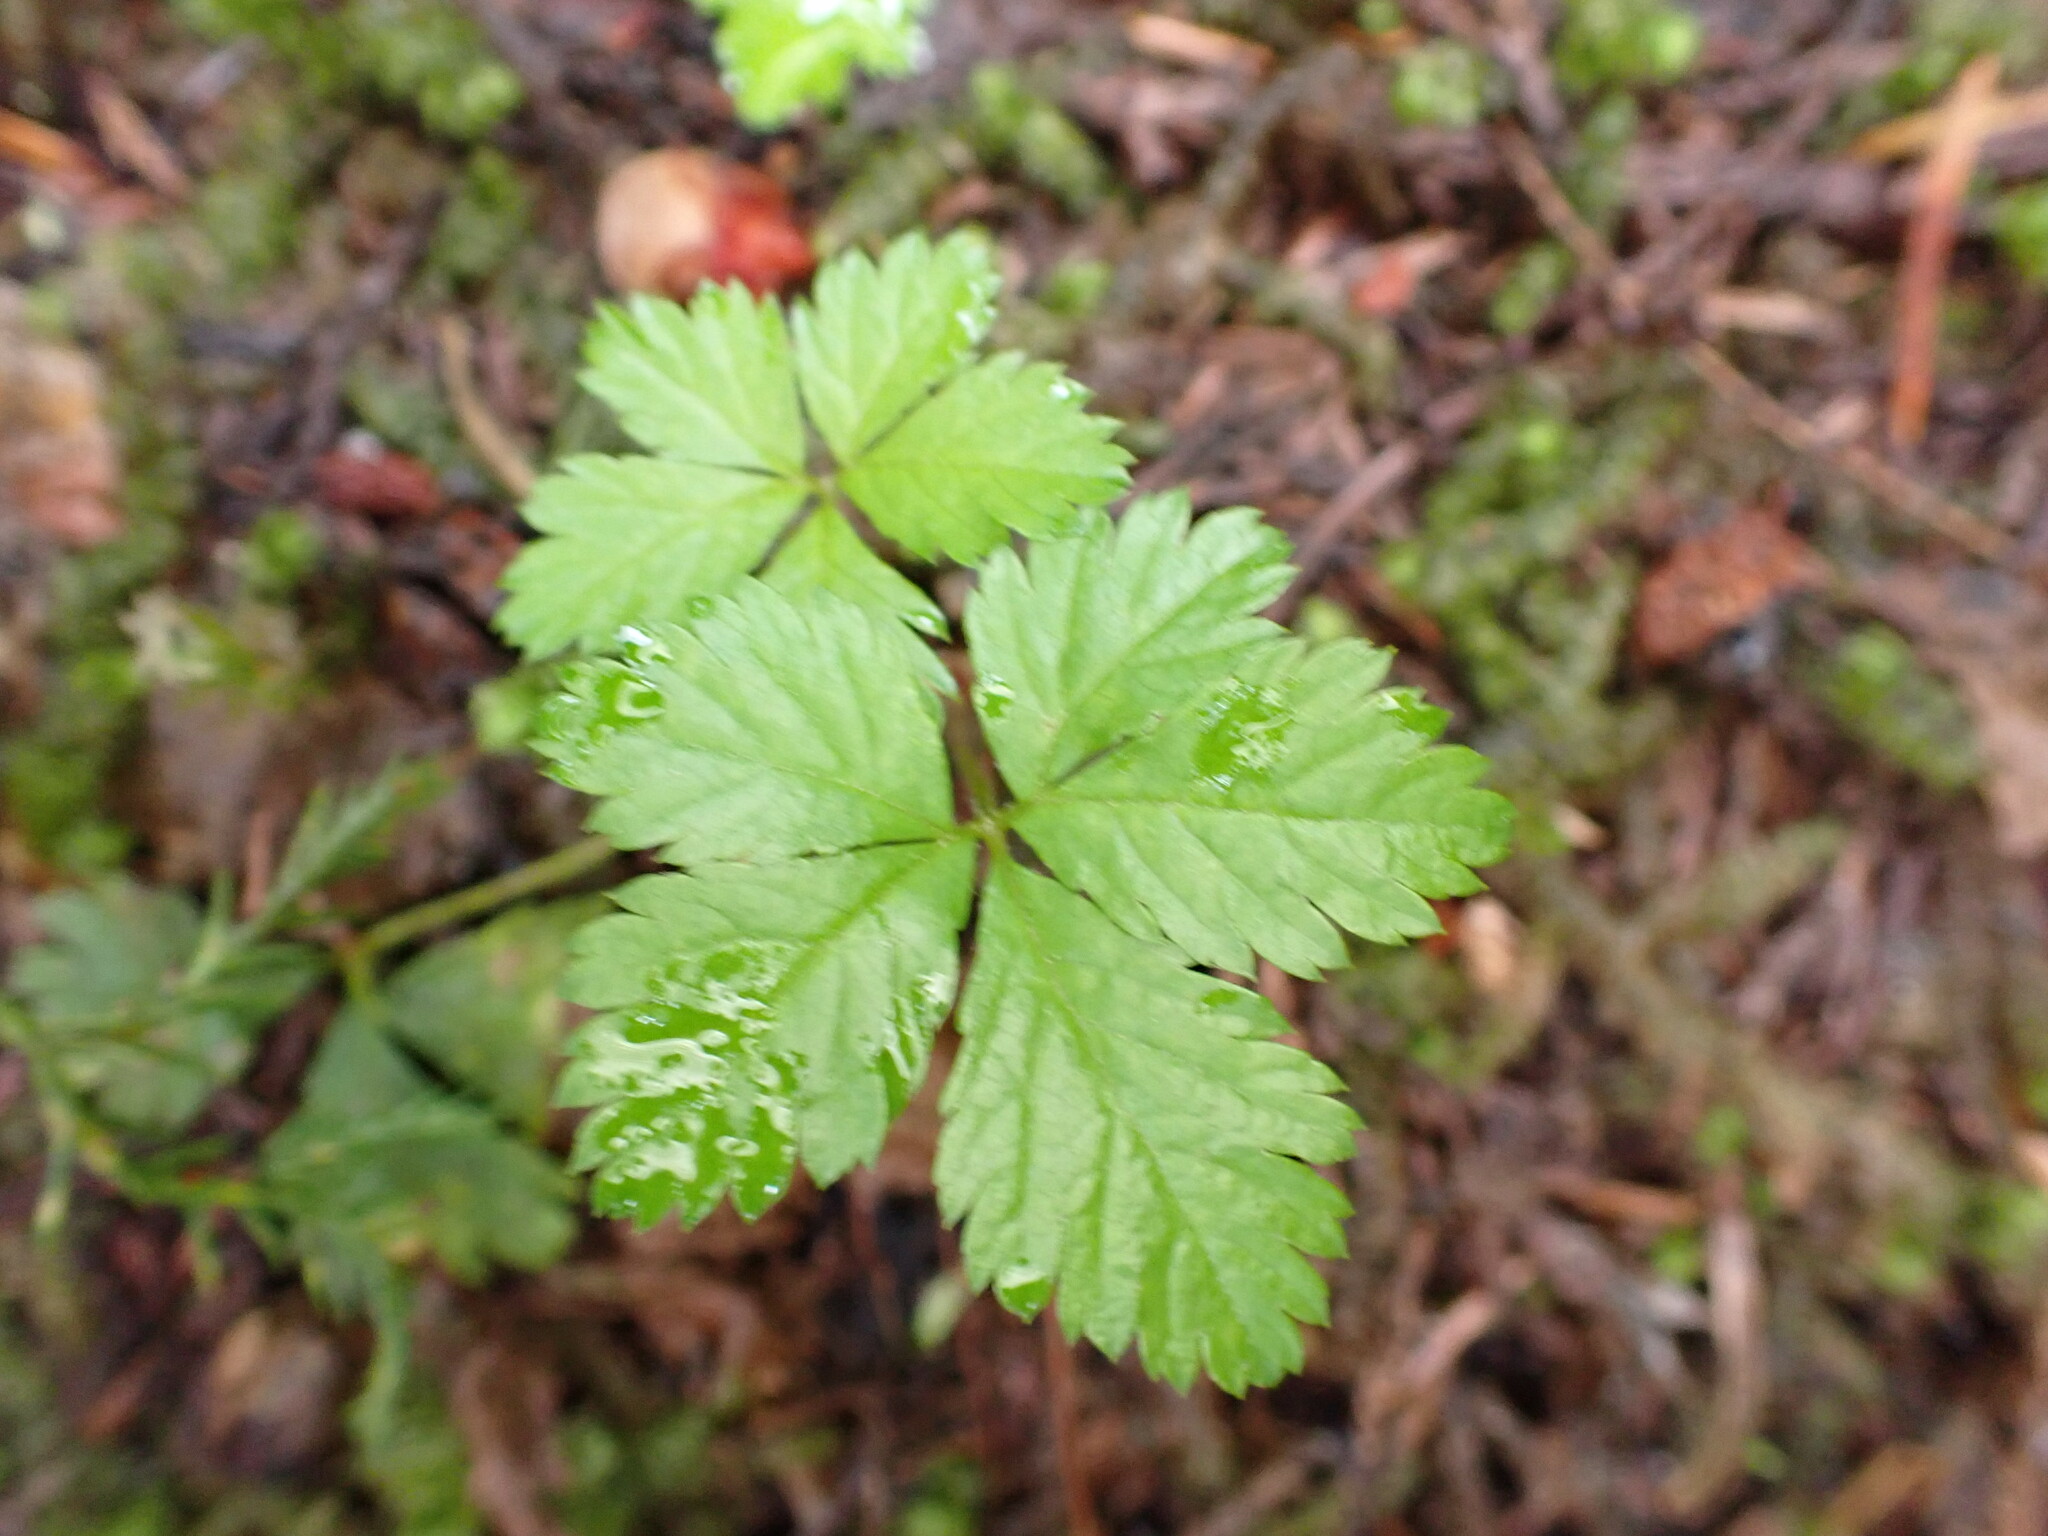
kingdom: Plantae
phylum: Tracheophyta
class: Magnoliopsida
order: Rosales
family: Rosaceae
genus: Rubus
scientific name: Rubus pedatus
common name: Creeping raspberry
